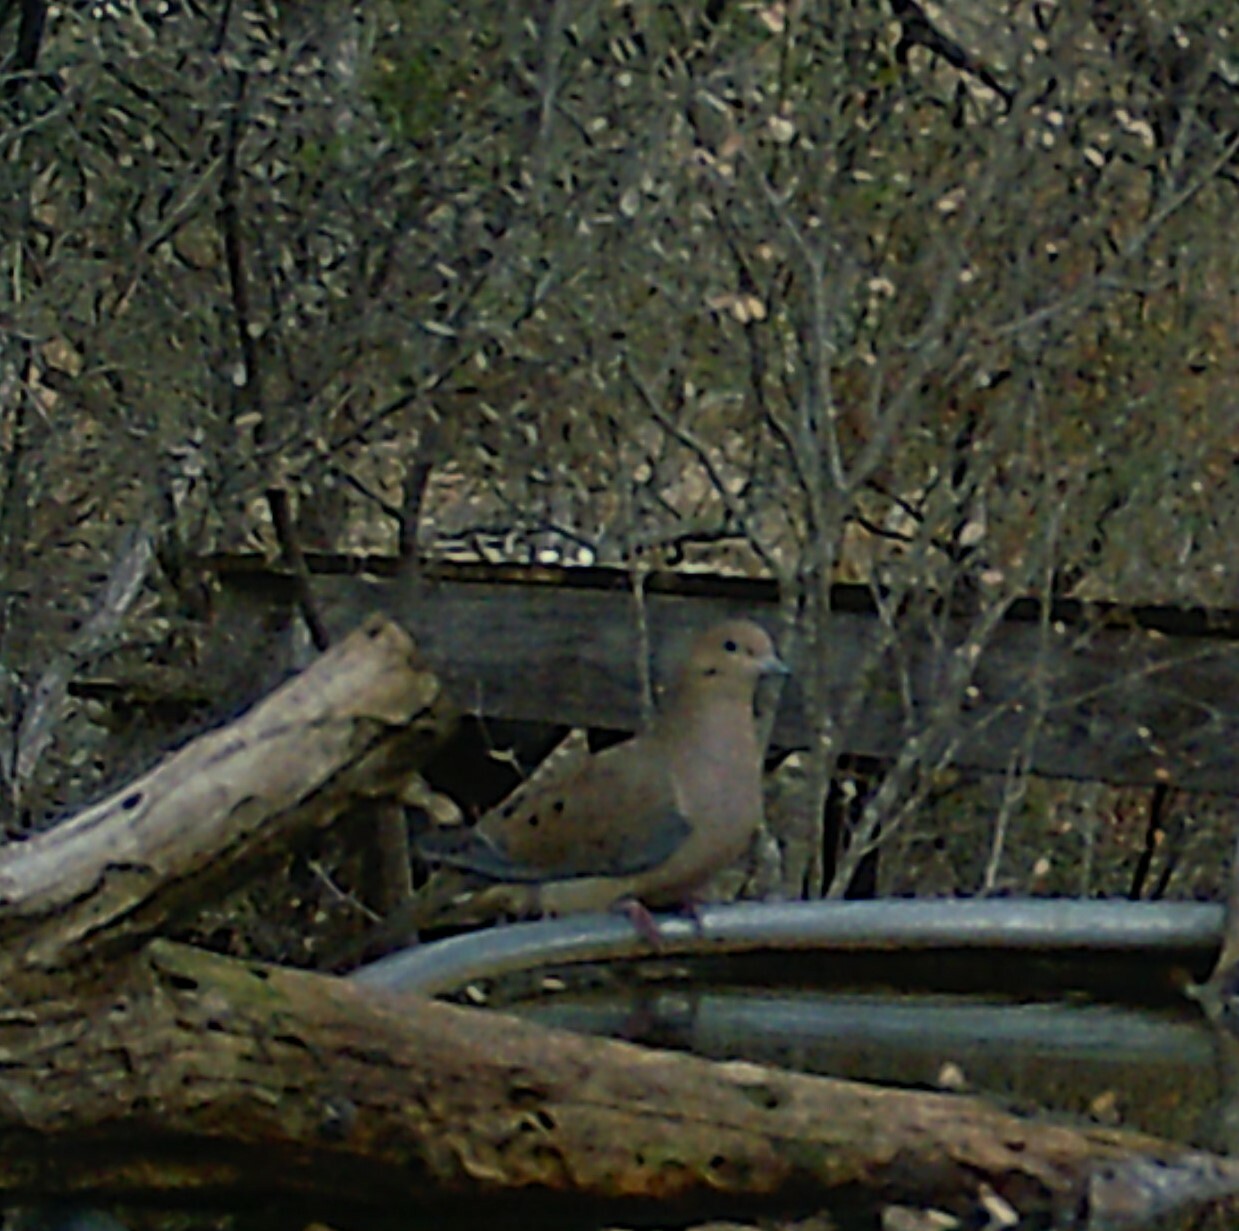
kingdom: Animalia
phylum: Chordata
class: Aves
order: Columbiformes
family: Columbidae
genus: Zenaida
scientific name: Zenaida macroura
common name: Mourning dove
